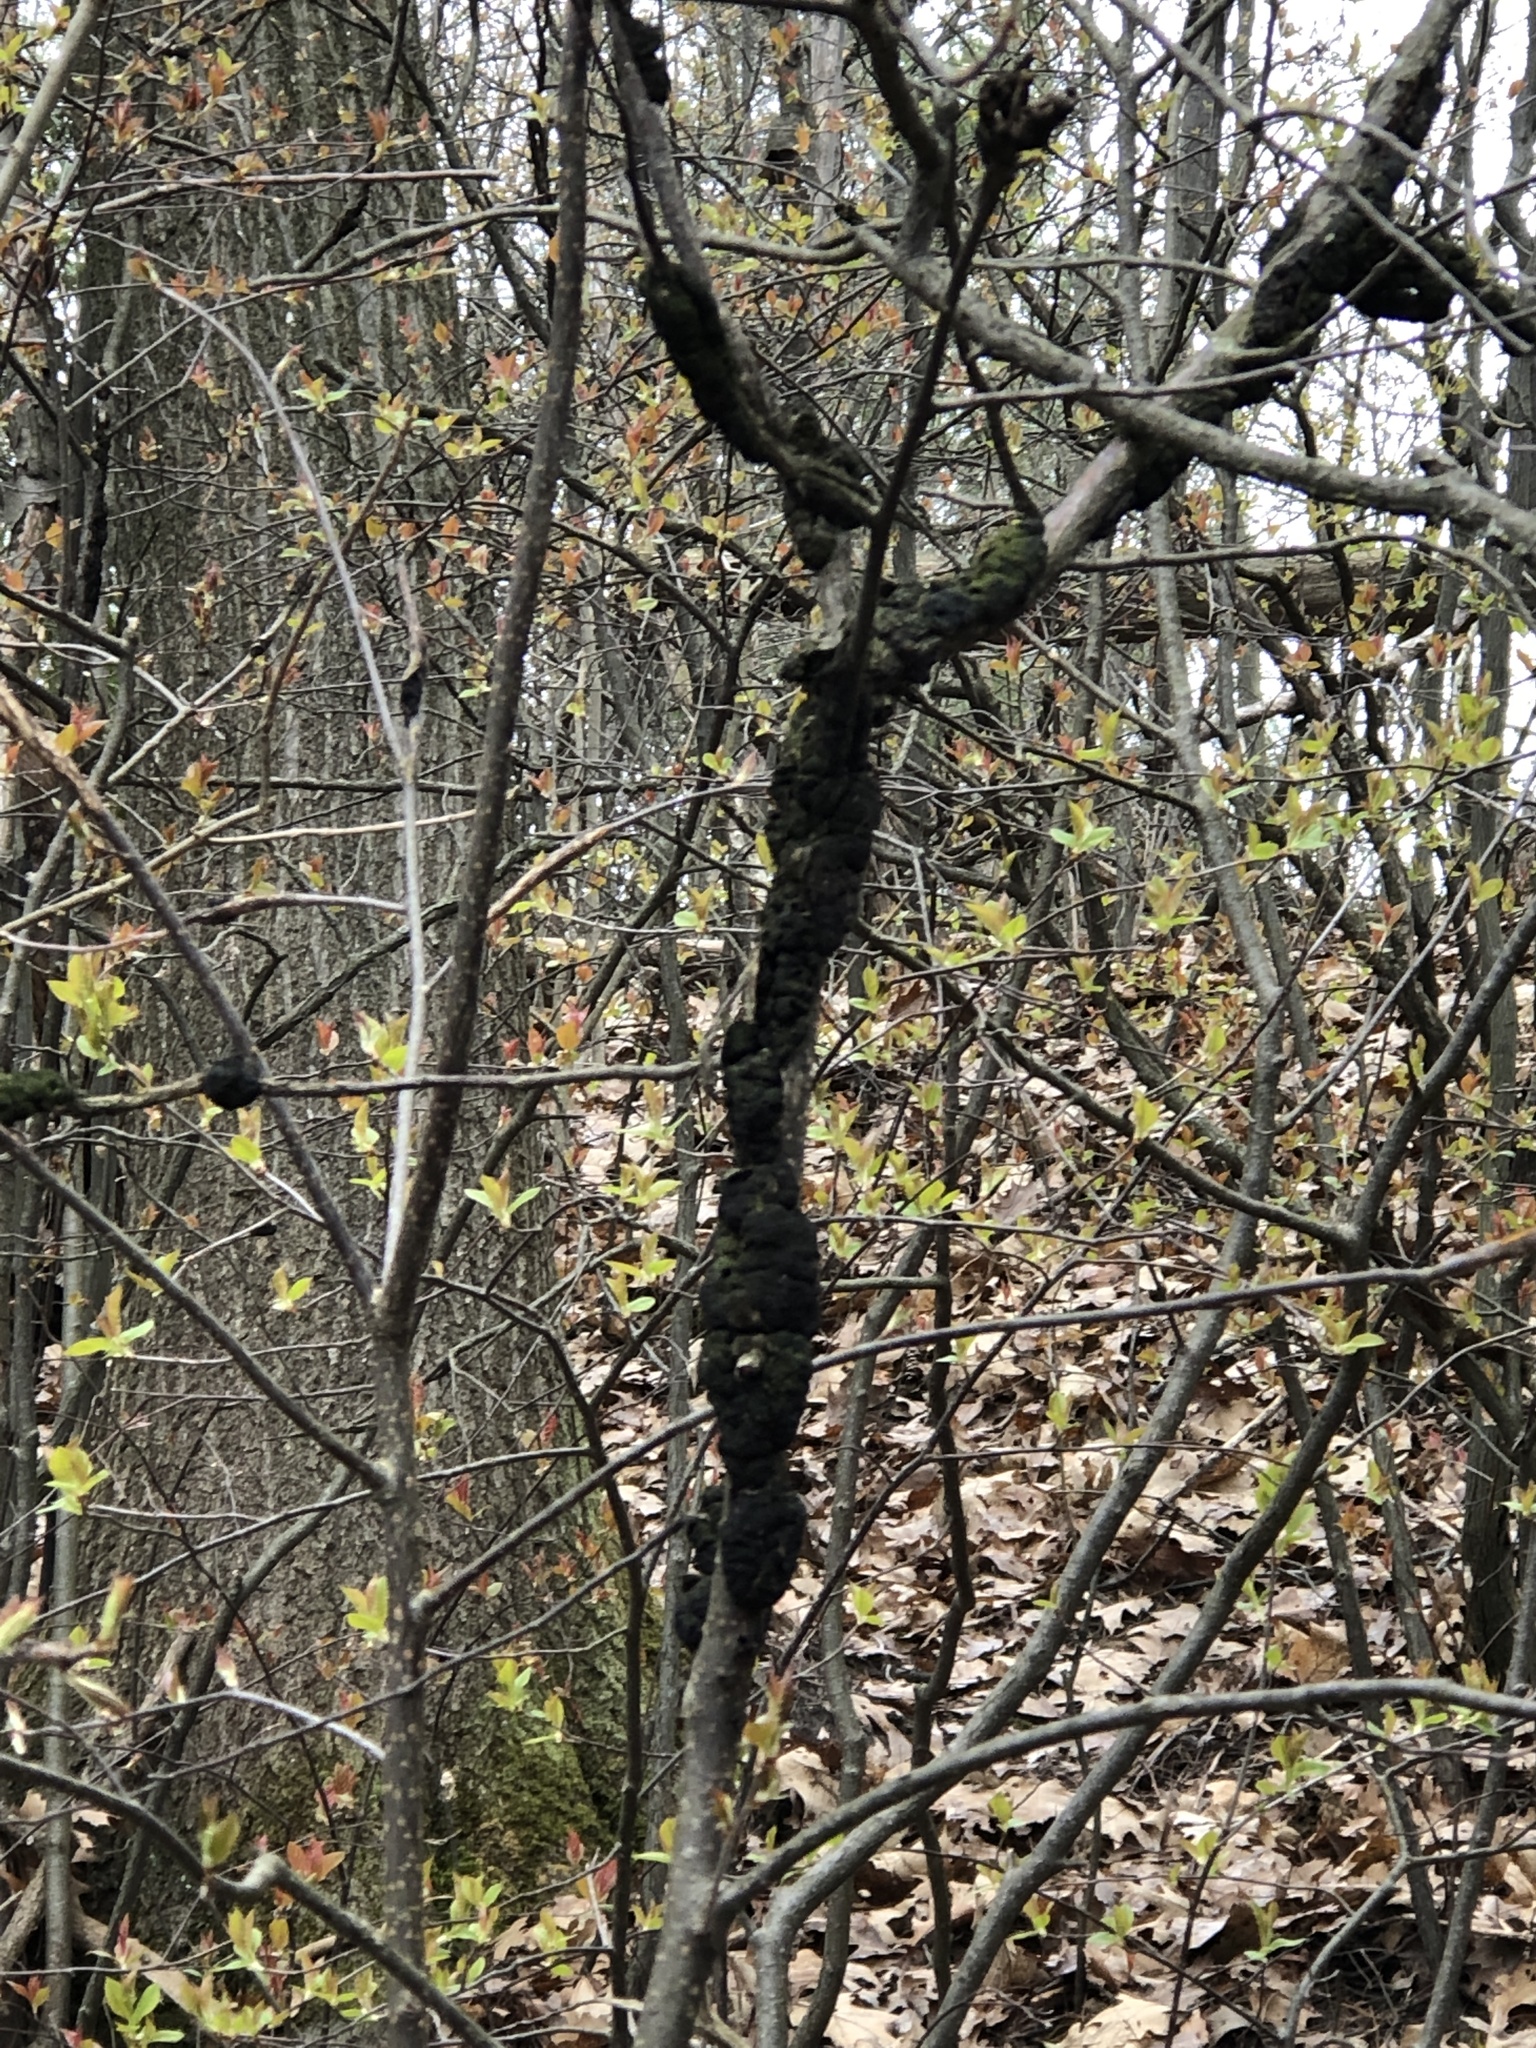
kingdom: Fungi
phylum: Ascomycota
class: Dothideomycetes
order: Venturiales
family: Venturiaceae
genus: Apiosporina
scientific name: Apiosporina morbosa
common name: Black knot
